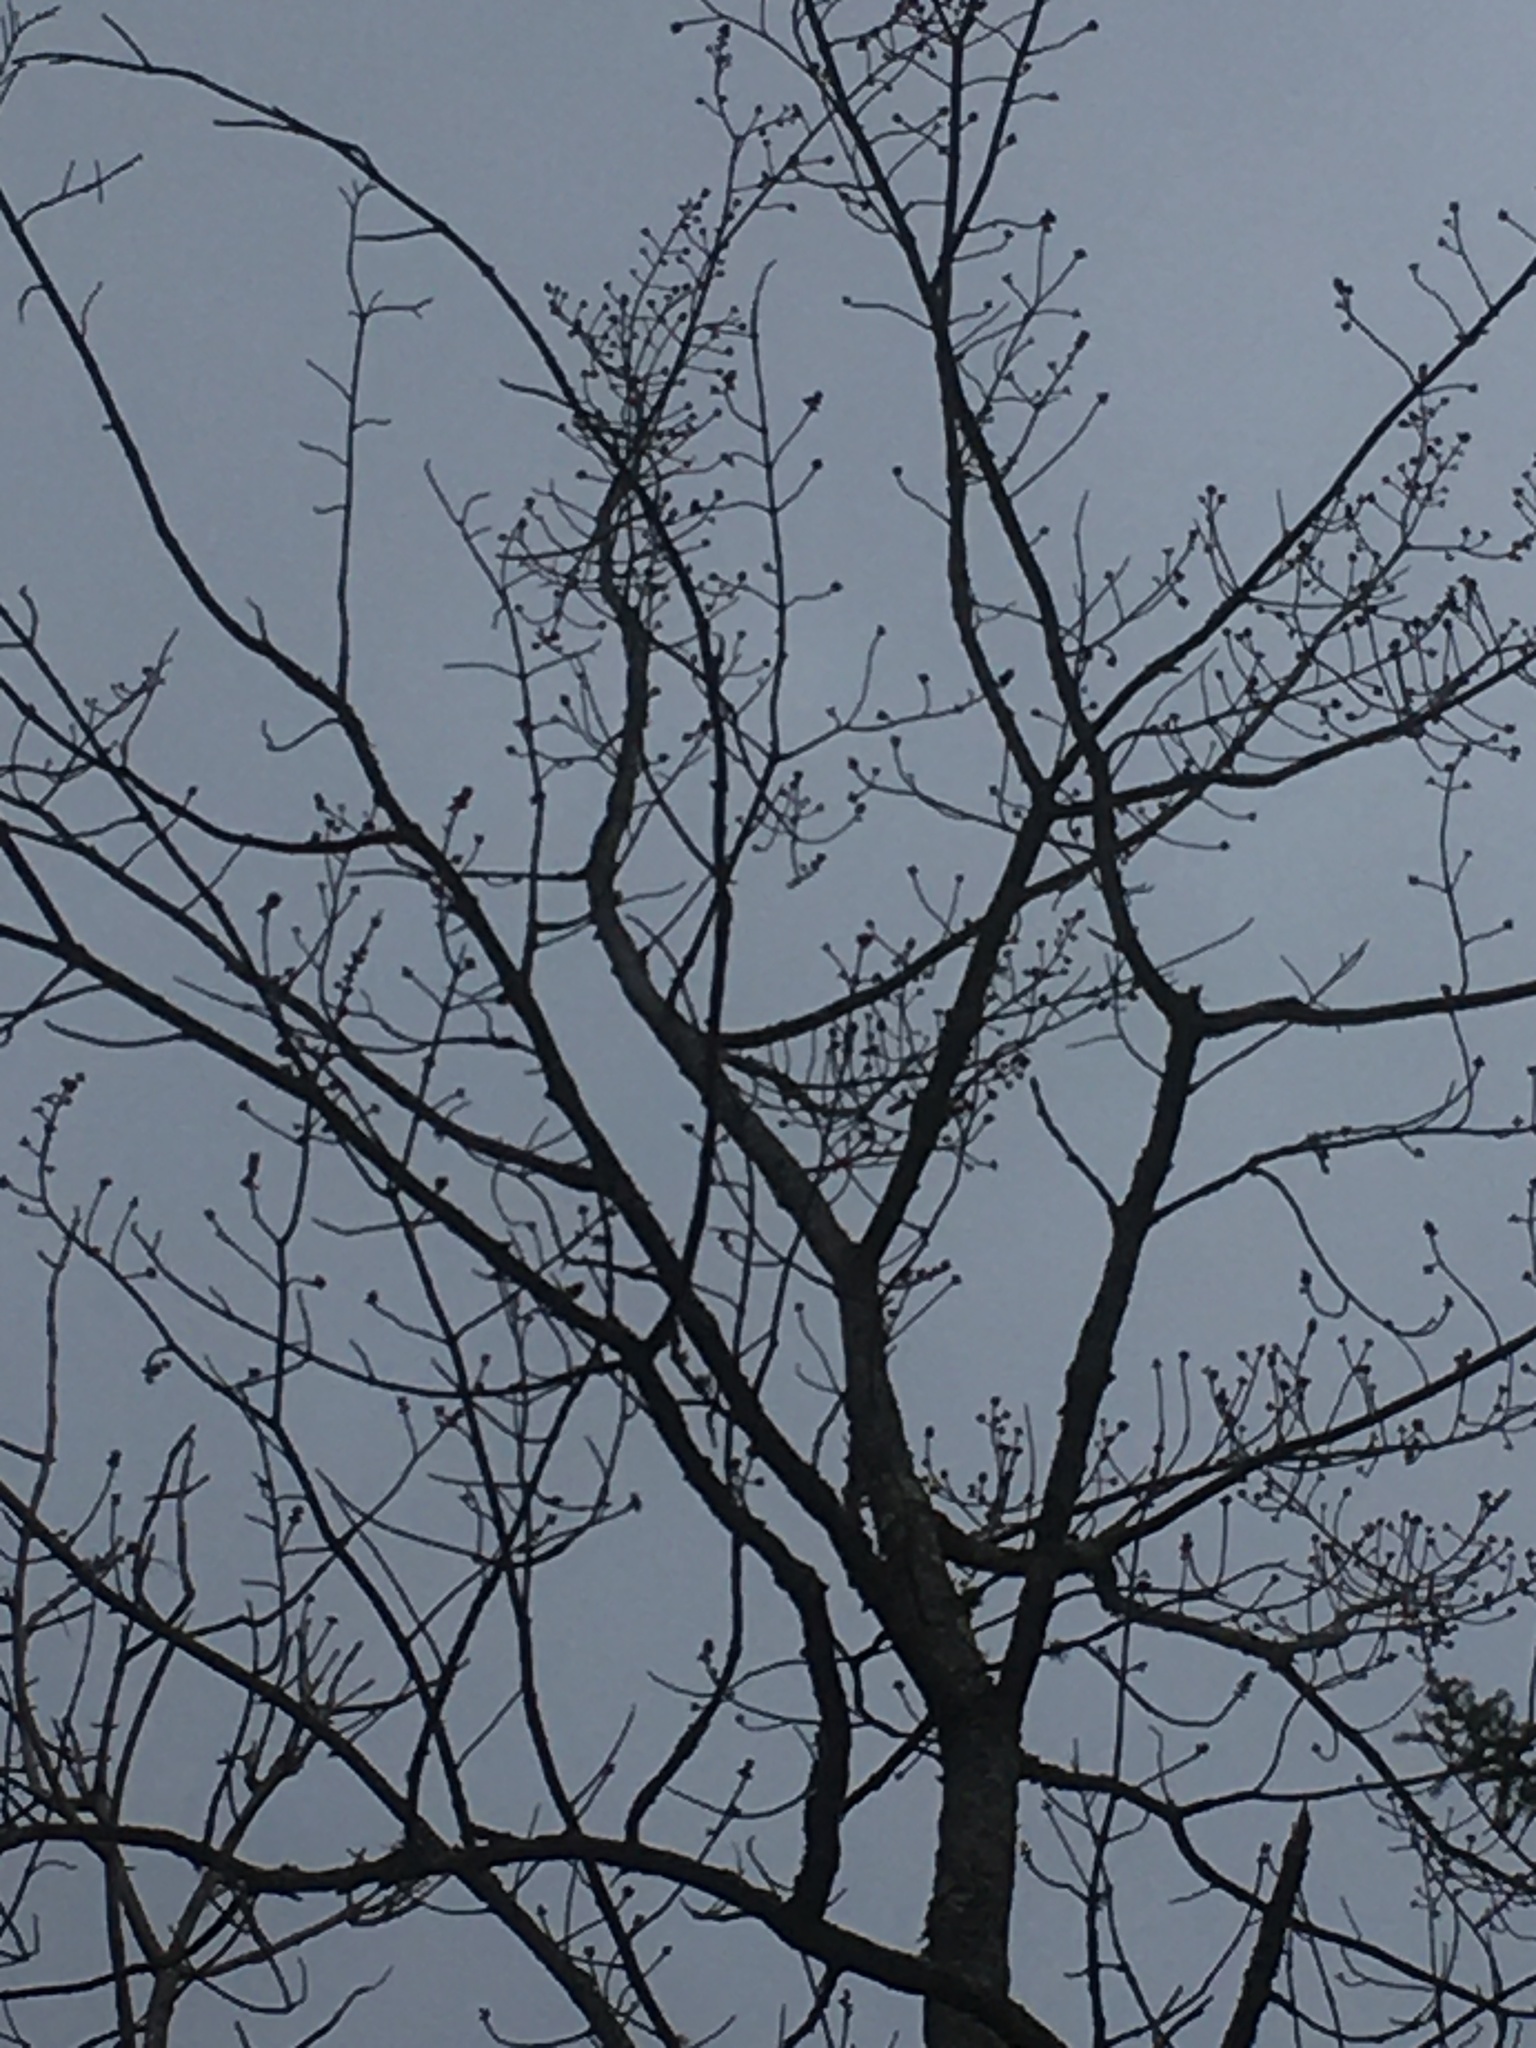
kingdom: Plantae
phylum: Tracheophyta
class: Magnoliopsida
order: Sapindales
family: Sapindaceae
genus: Acer
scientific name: Acer rubrum
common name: Red maple
